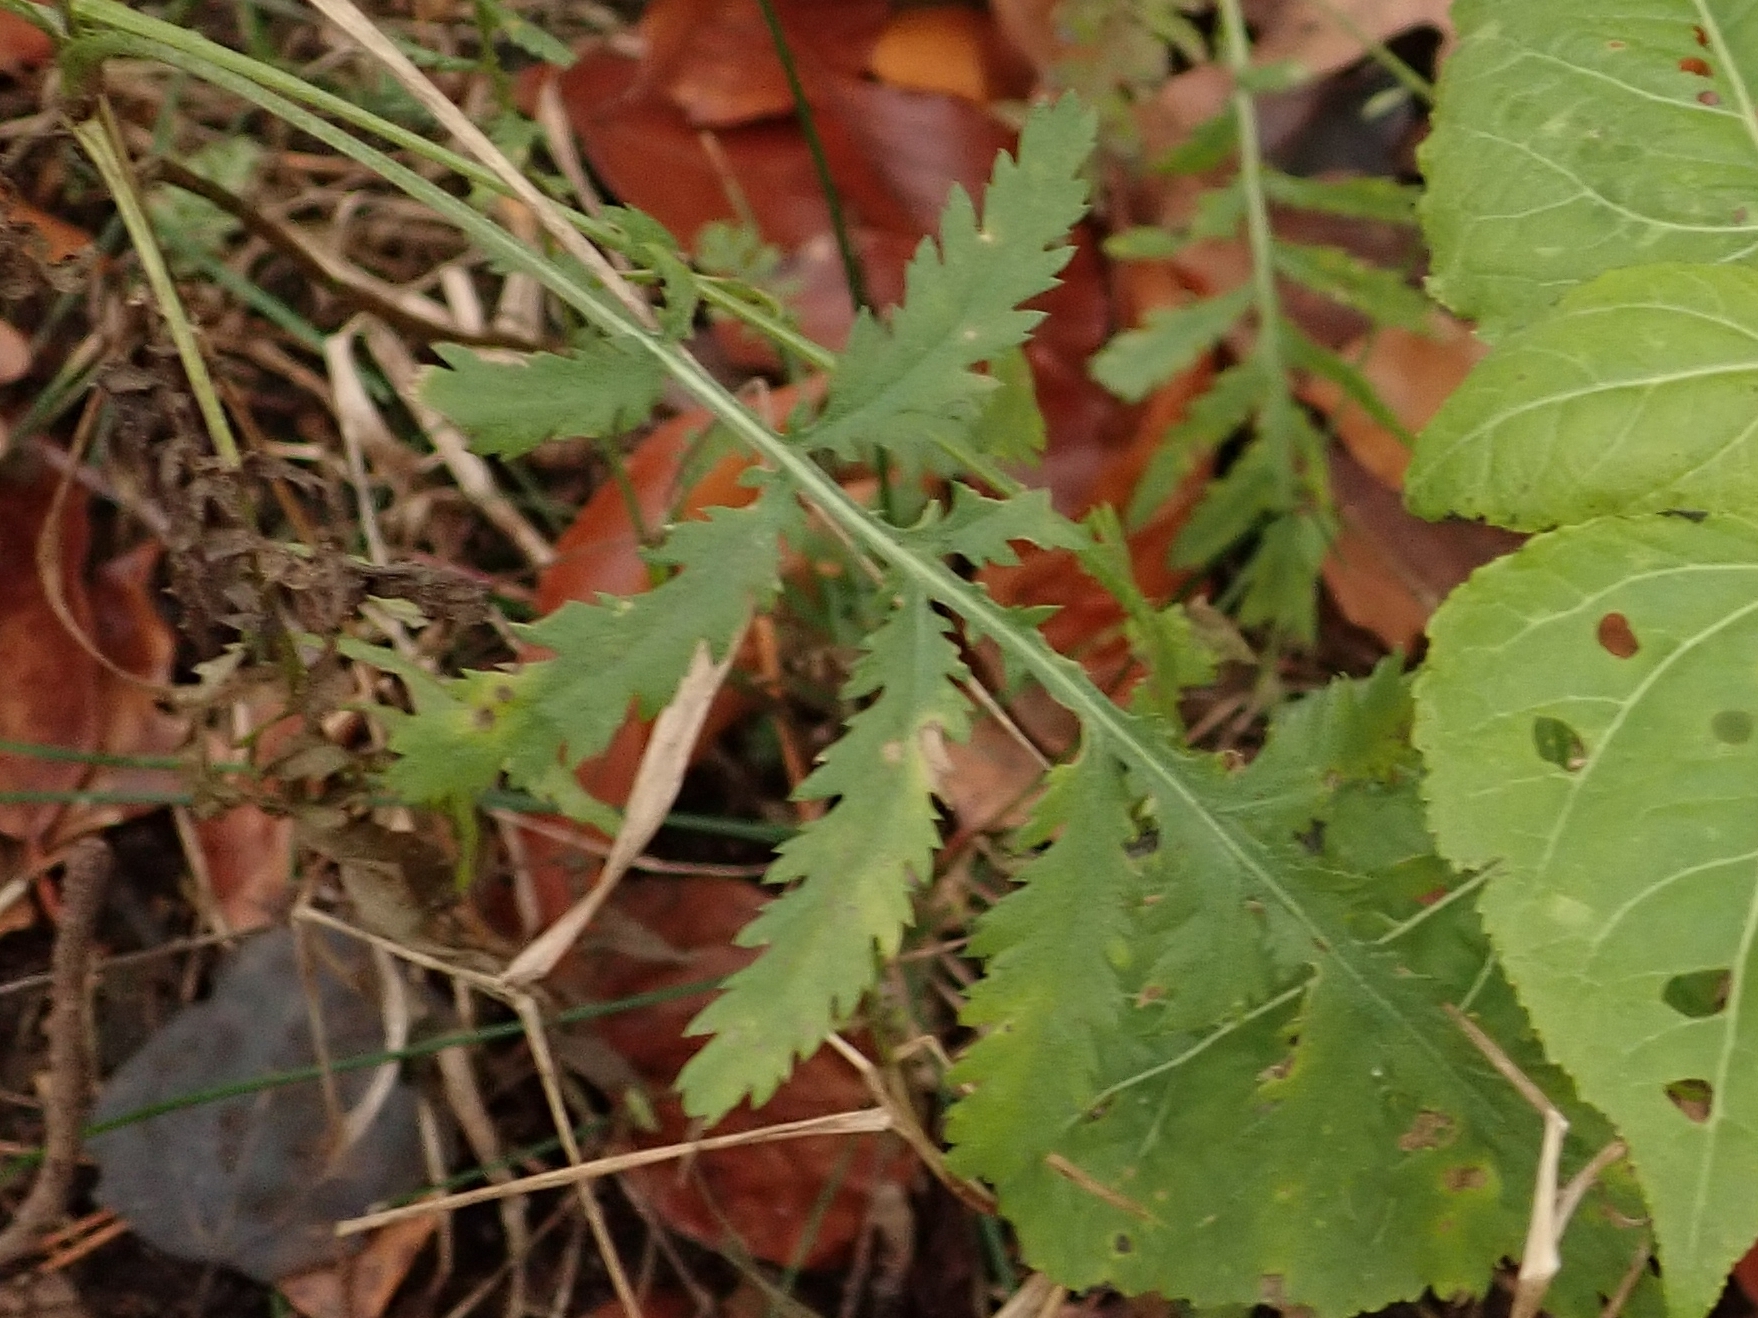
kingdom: Plantae
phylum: Tracheophyta
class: Magnoliopsida
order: Asterales
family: Asteraceae
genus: Tanacetum
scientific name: Tanacetum vulgare
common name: Common tansy
